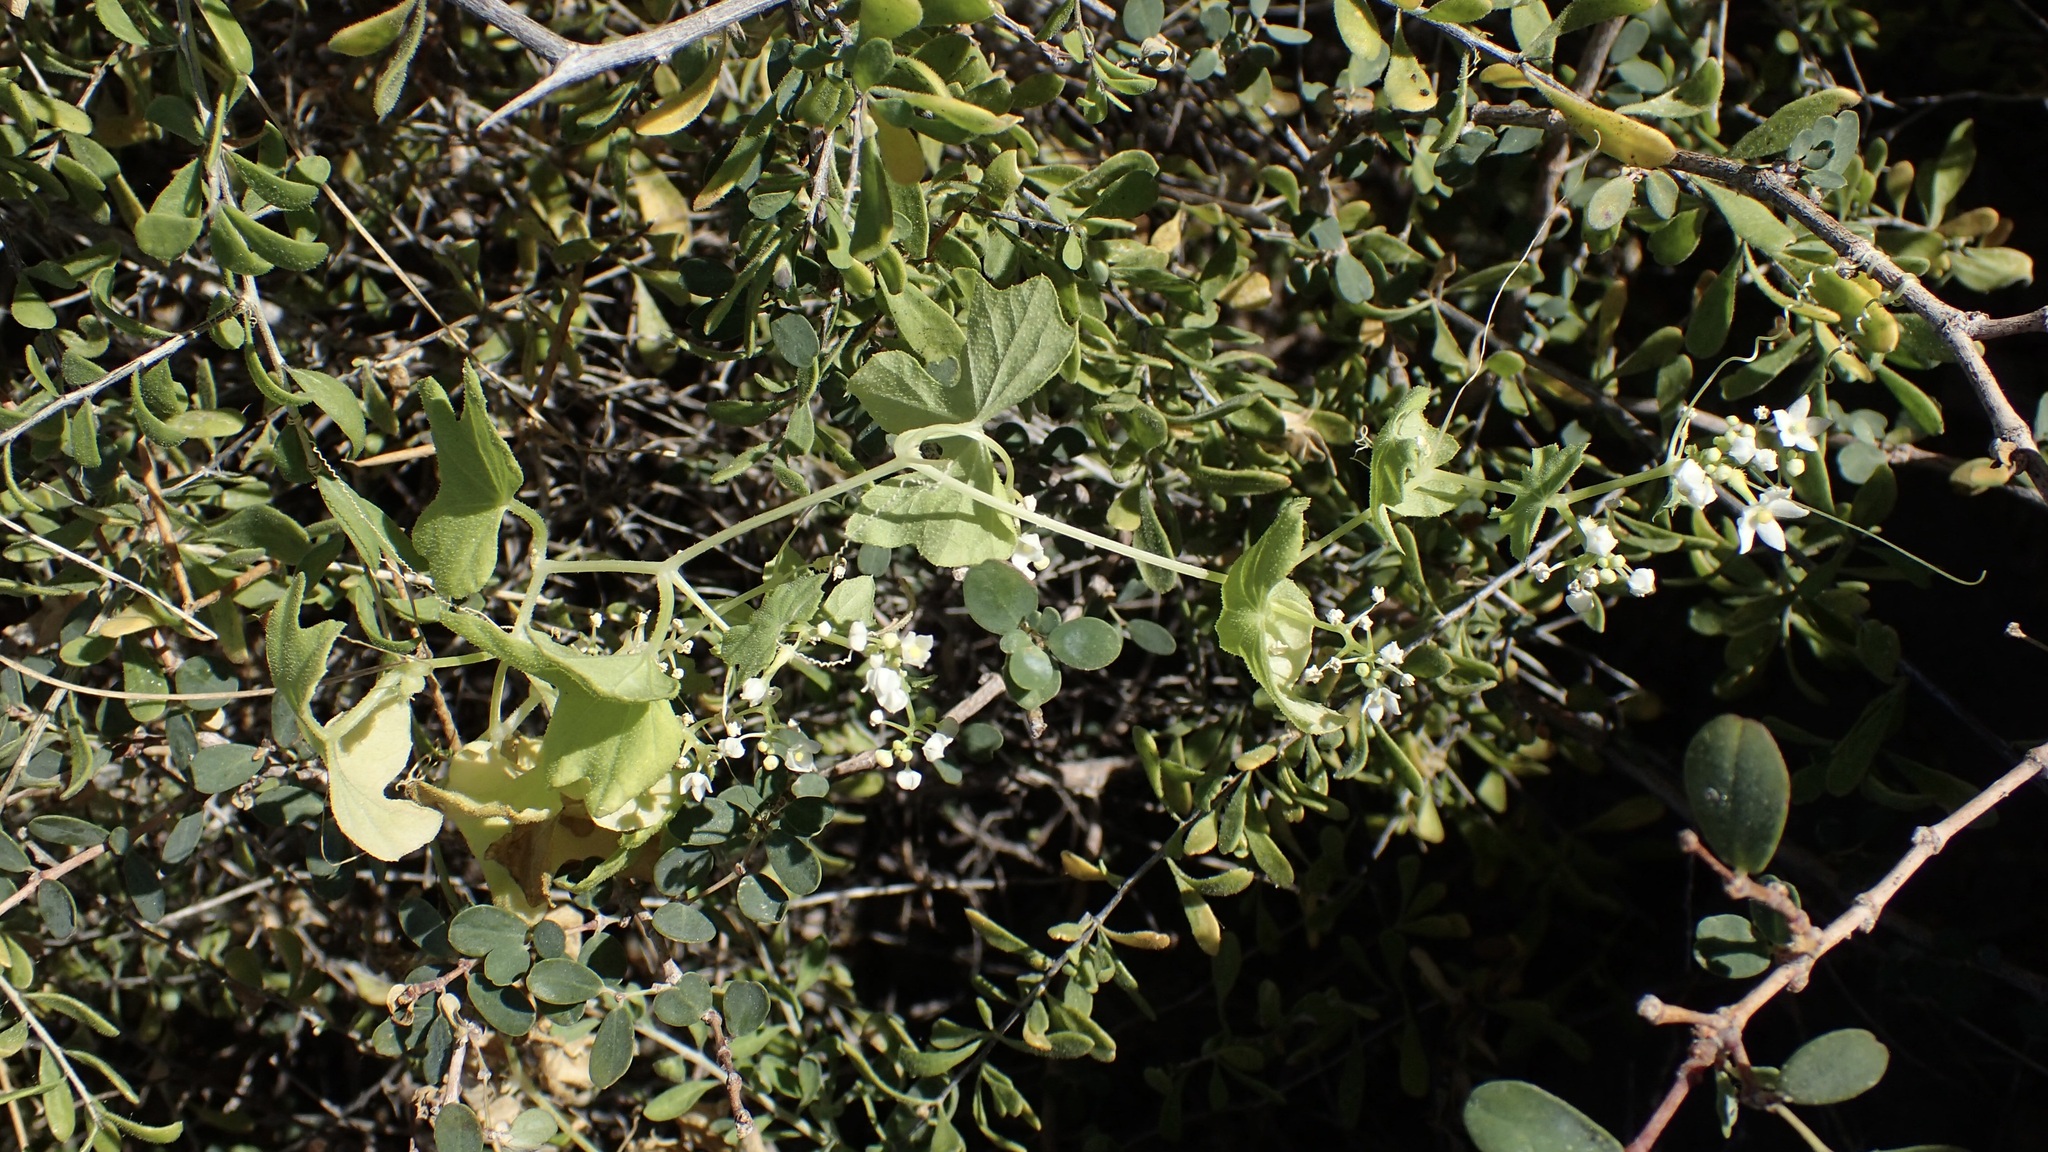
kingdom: Plantae
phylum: Tracheophyta
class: Magnoliopsida
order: Cucurbitales
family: Cucurbitaceae
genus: Echinopepon
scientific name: Echinopepon insularis
